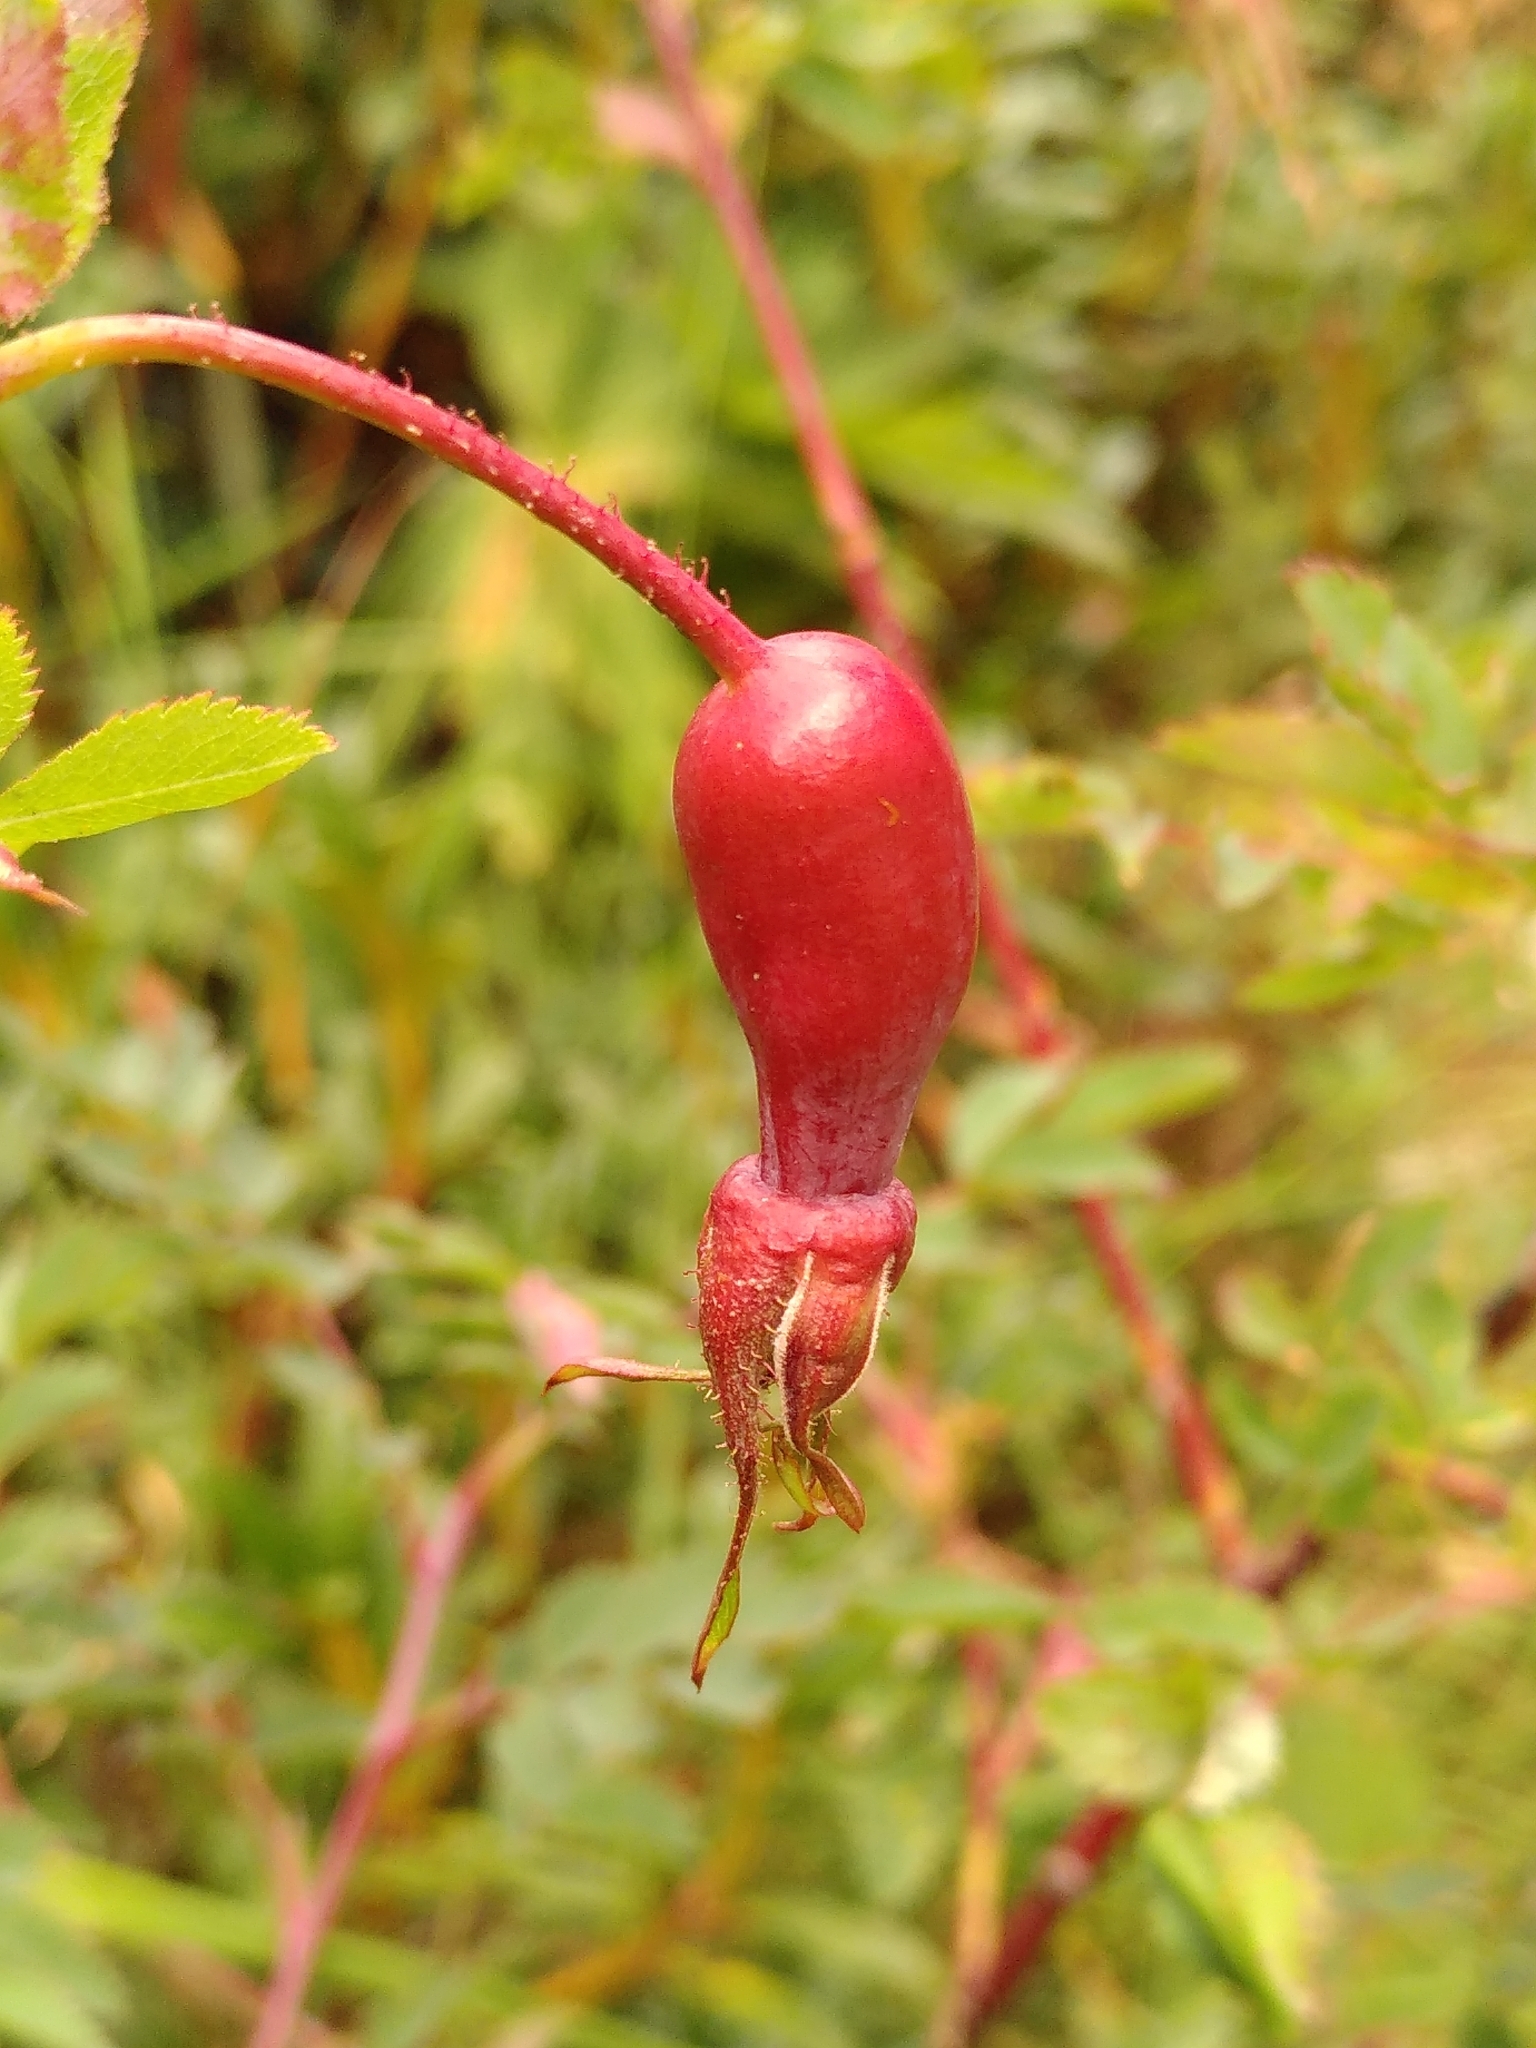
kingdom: Plantae
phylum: Tracheophyta
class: Magnoliopsida
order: Rosales
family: Rosaceae
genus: Rosa
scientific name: Rosa pendulina
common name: Alpine rose
